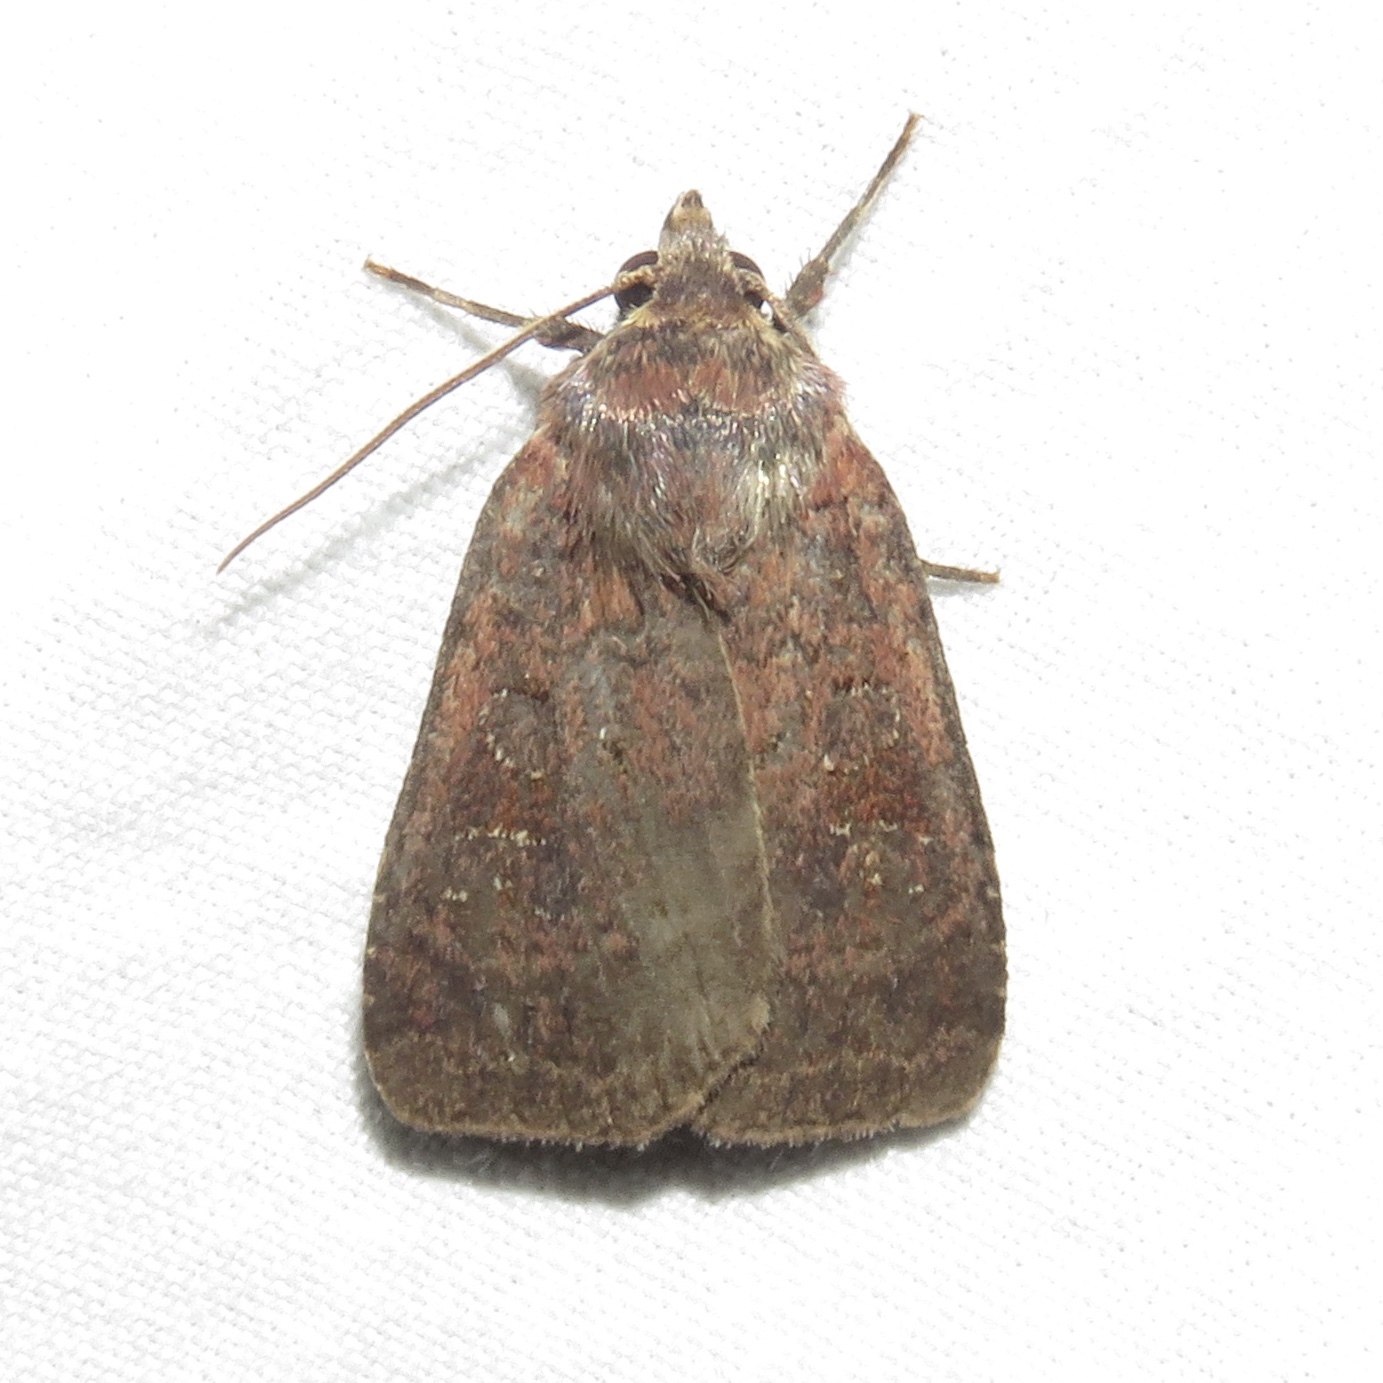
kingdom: Animalia
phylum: Arthropoda
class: Insecta
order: Lepidoptera
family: Noctuidae
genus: Diarsia
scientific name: Diarsia jucunda
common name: Smaller pinkish dart
